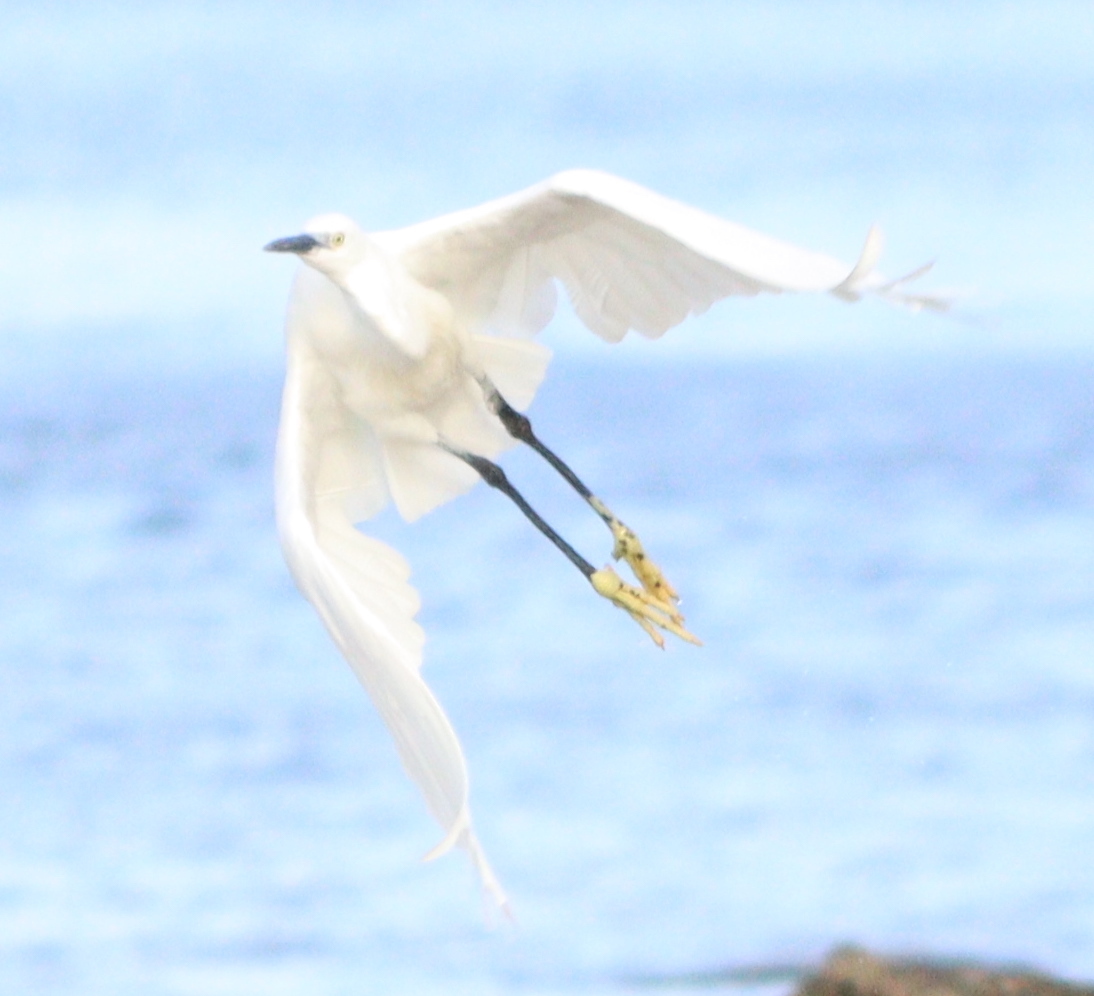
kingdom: Animalia
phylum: Chordata
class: Aves
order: Pelecaniformes
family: Ardeidae
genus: Egretta
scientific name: Egretta garzetta
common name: Little egret
